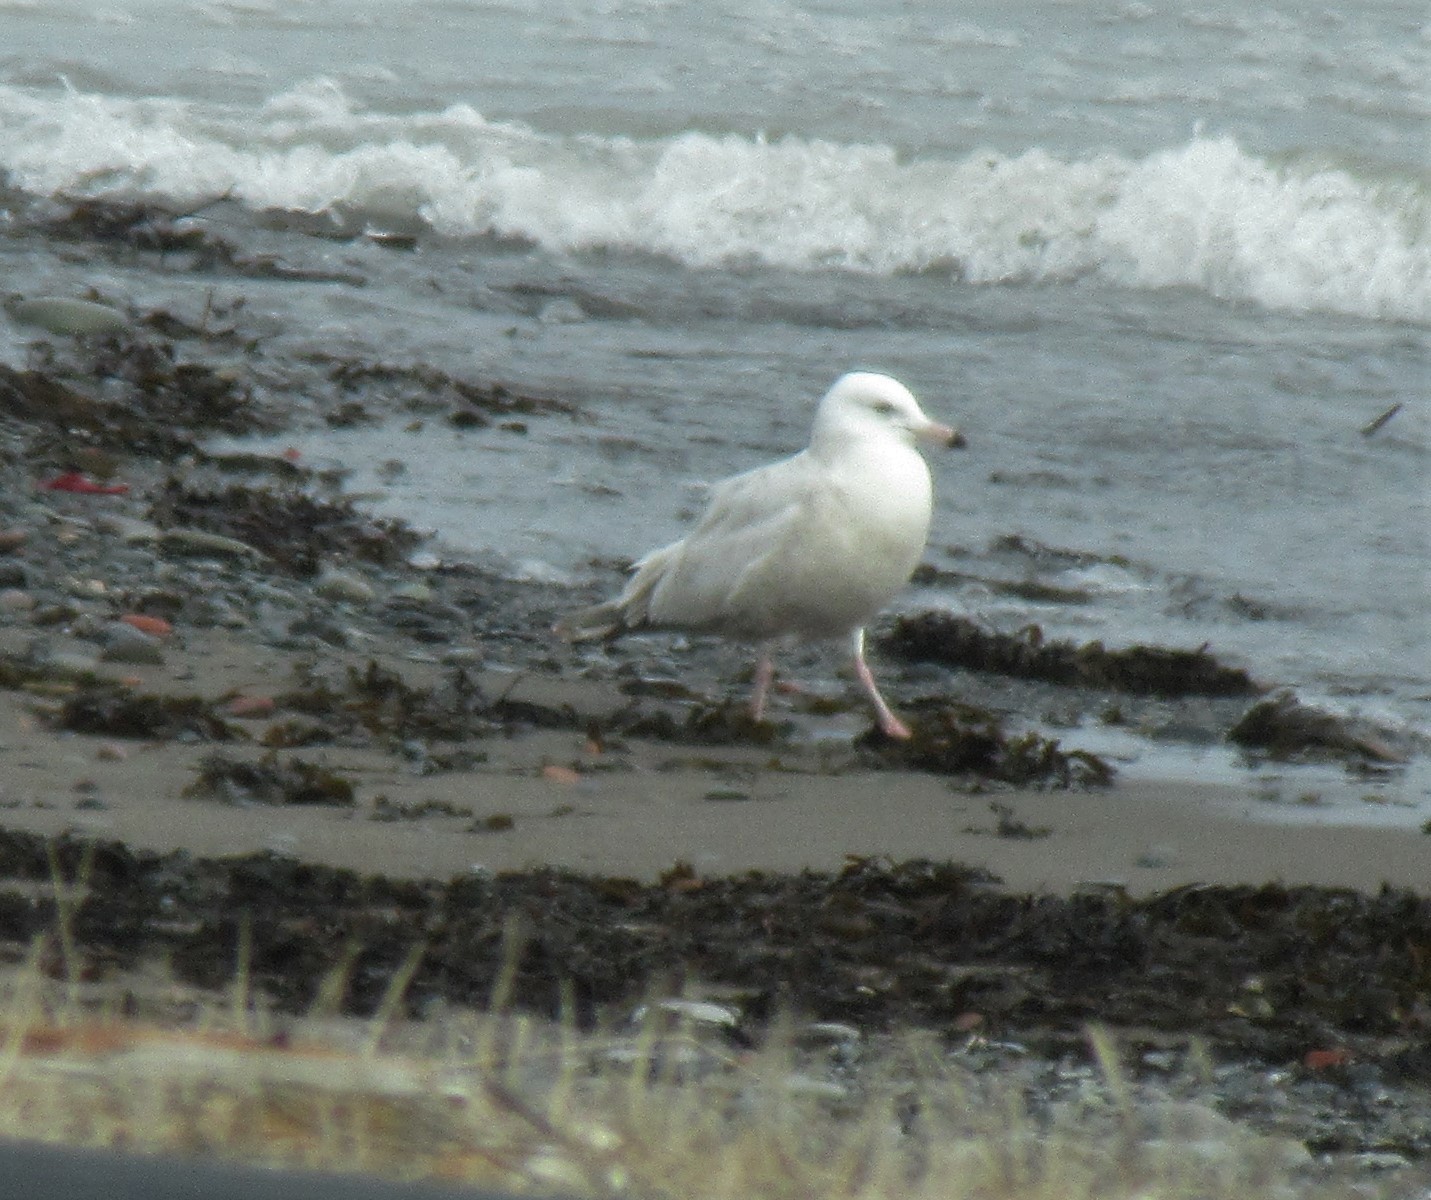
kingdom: Animalia
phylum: Chordata
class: Aves
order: Charadriiformes
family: Laridae
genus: Larus
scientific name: Larus
